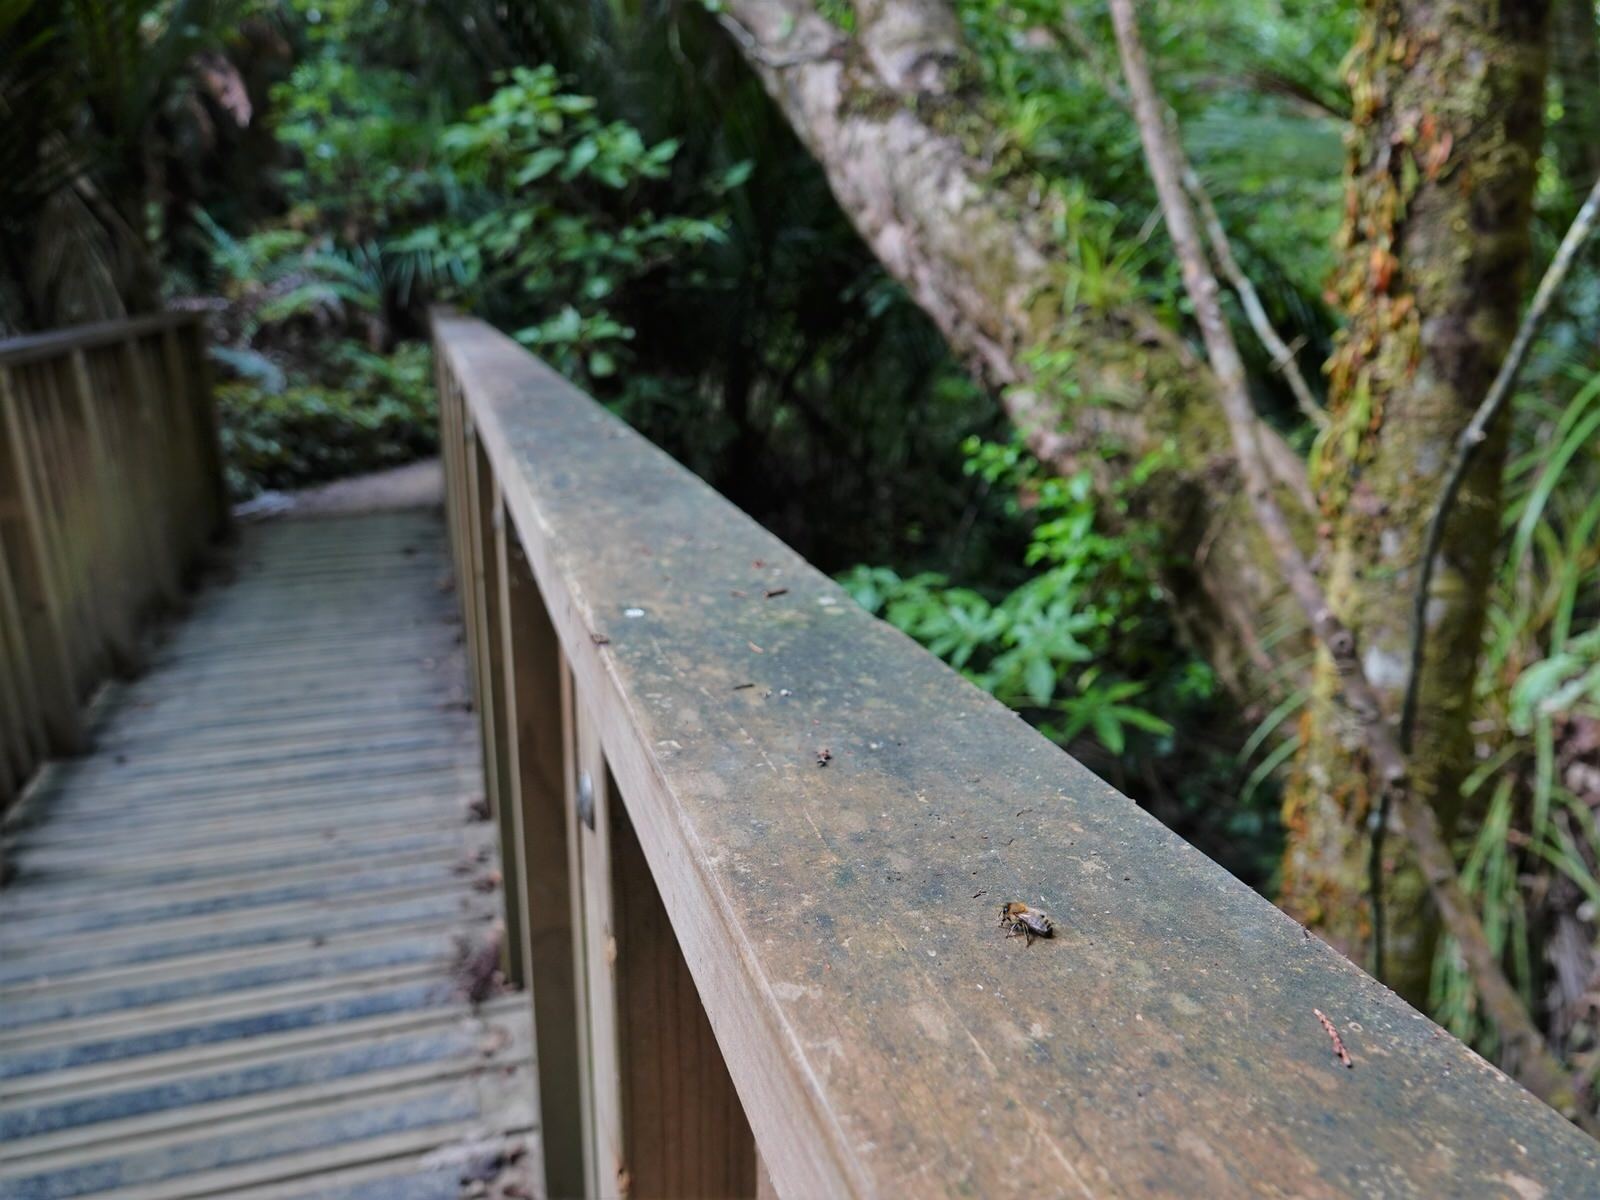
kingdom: Animalia
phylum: Arthropoda
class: Insecta
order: Hymenoptera
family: Apidae
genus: Apis
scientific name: Apis mellifera
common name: Honey bee
